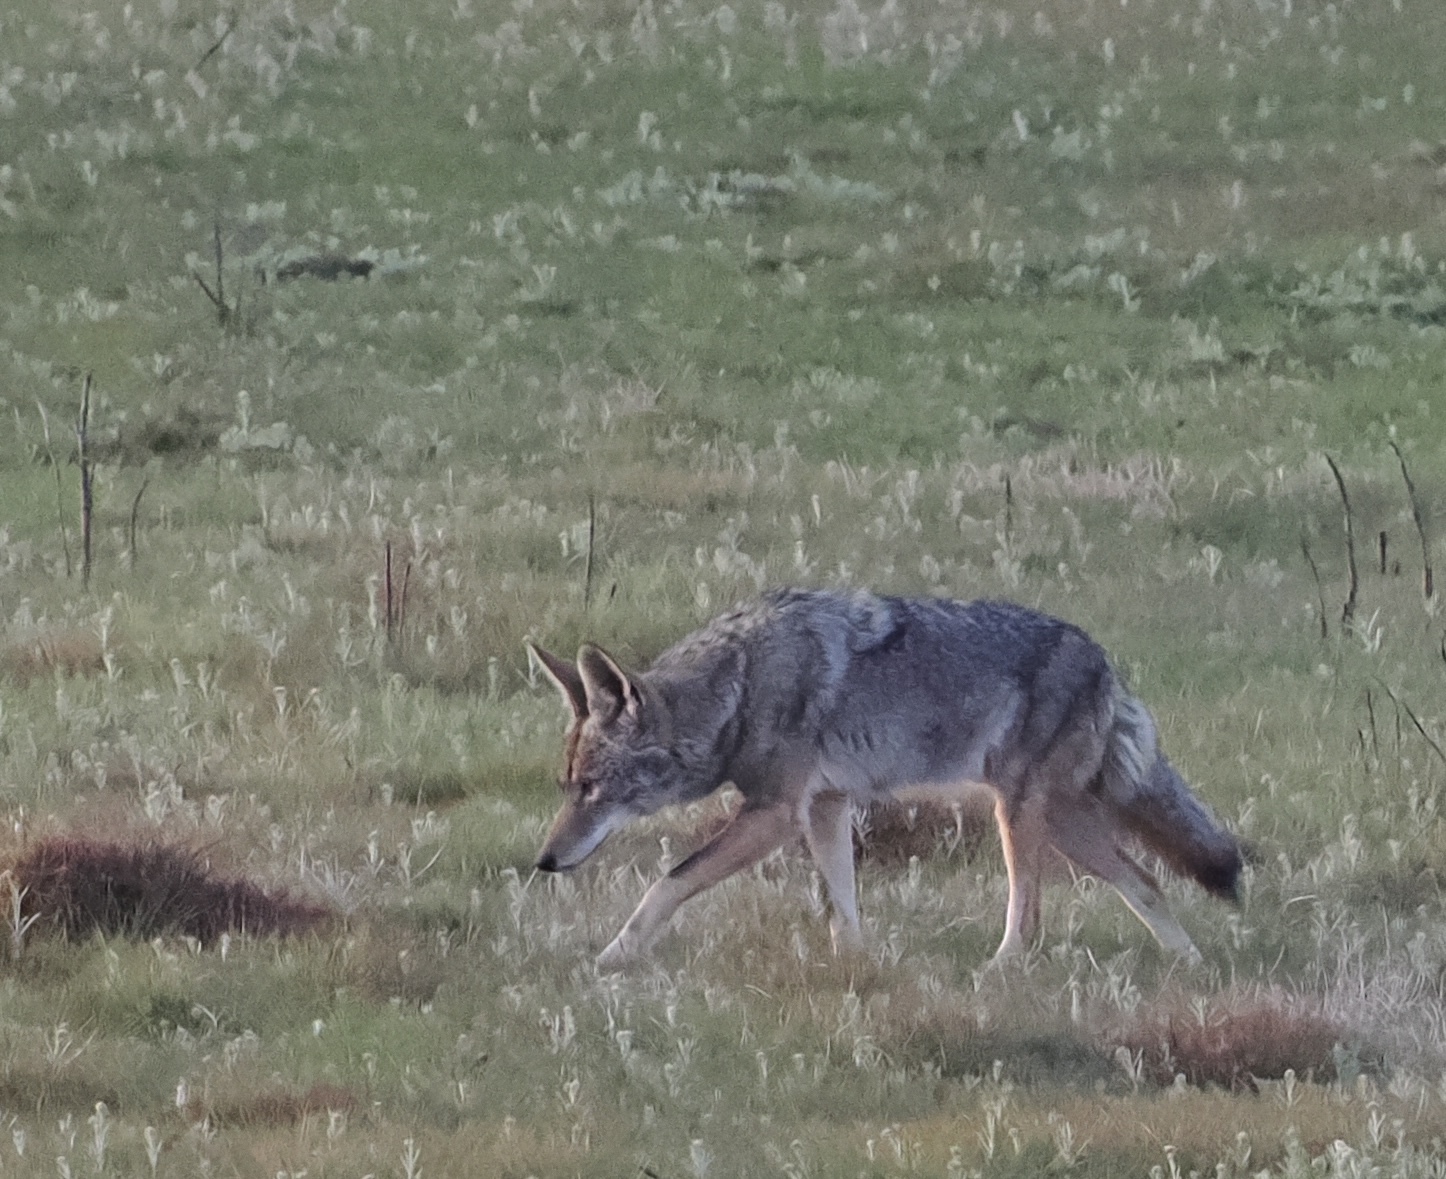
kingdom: Animalia
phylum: Chordata
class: Mammalia
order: Carnivora
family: Canidae
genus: Canis
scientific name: Canis latrans
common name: Coyote
